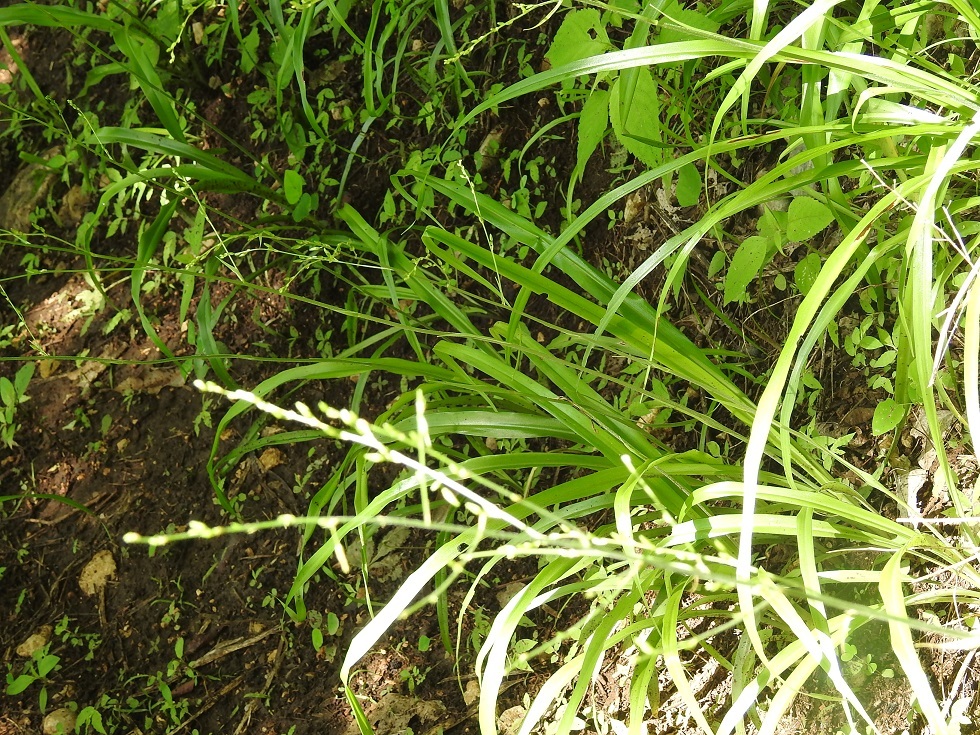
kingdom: Plantae
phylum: Tracheophyta
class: Liliopsida
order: Asparagales
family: Asparagaceae
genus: Echeandia
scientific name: Echeandia breedlovei
